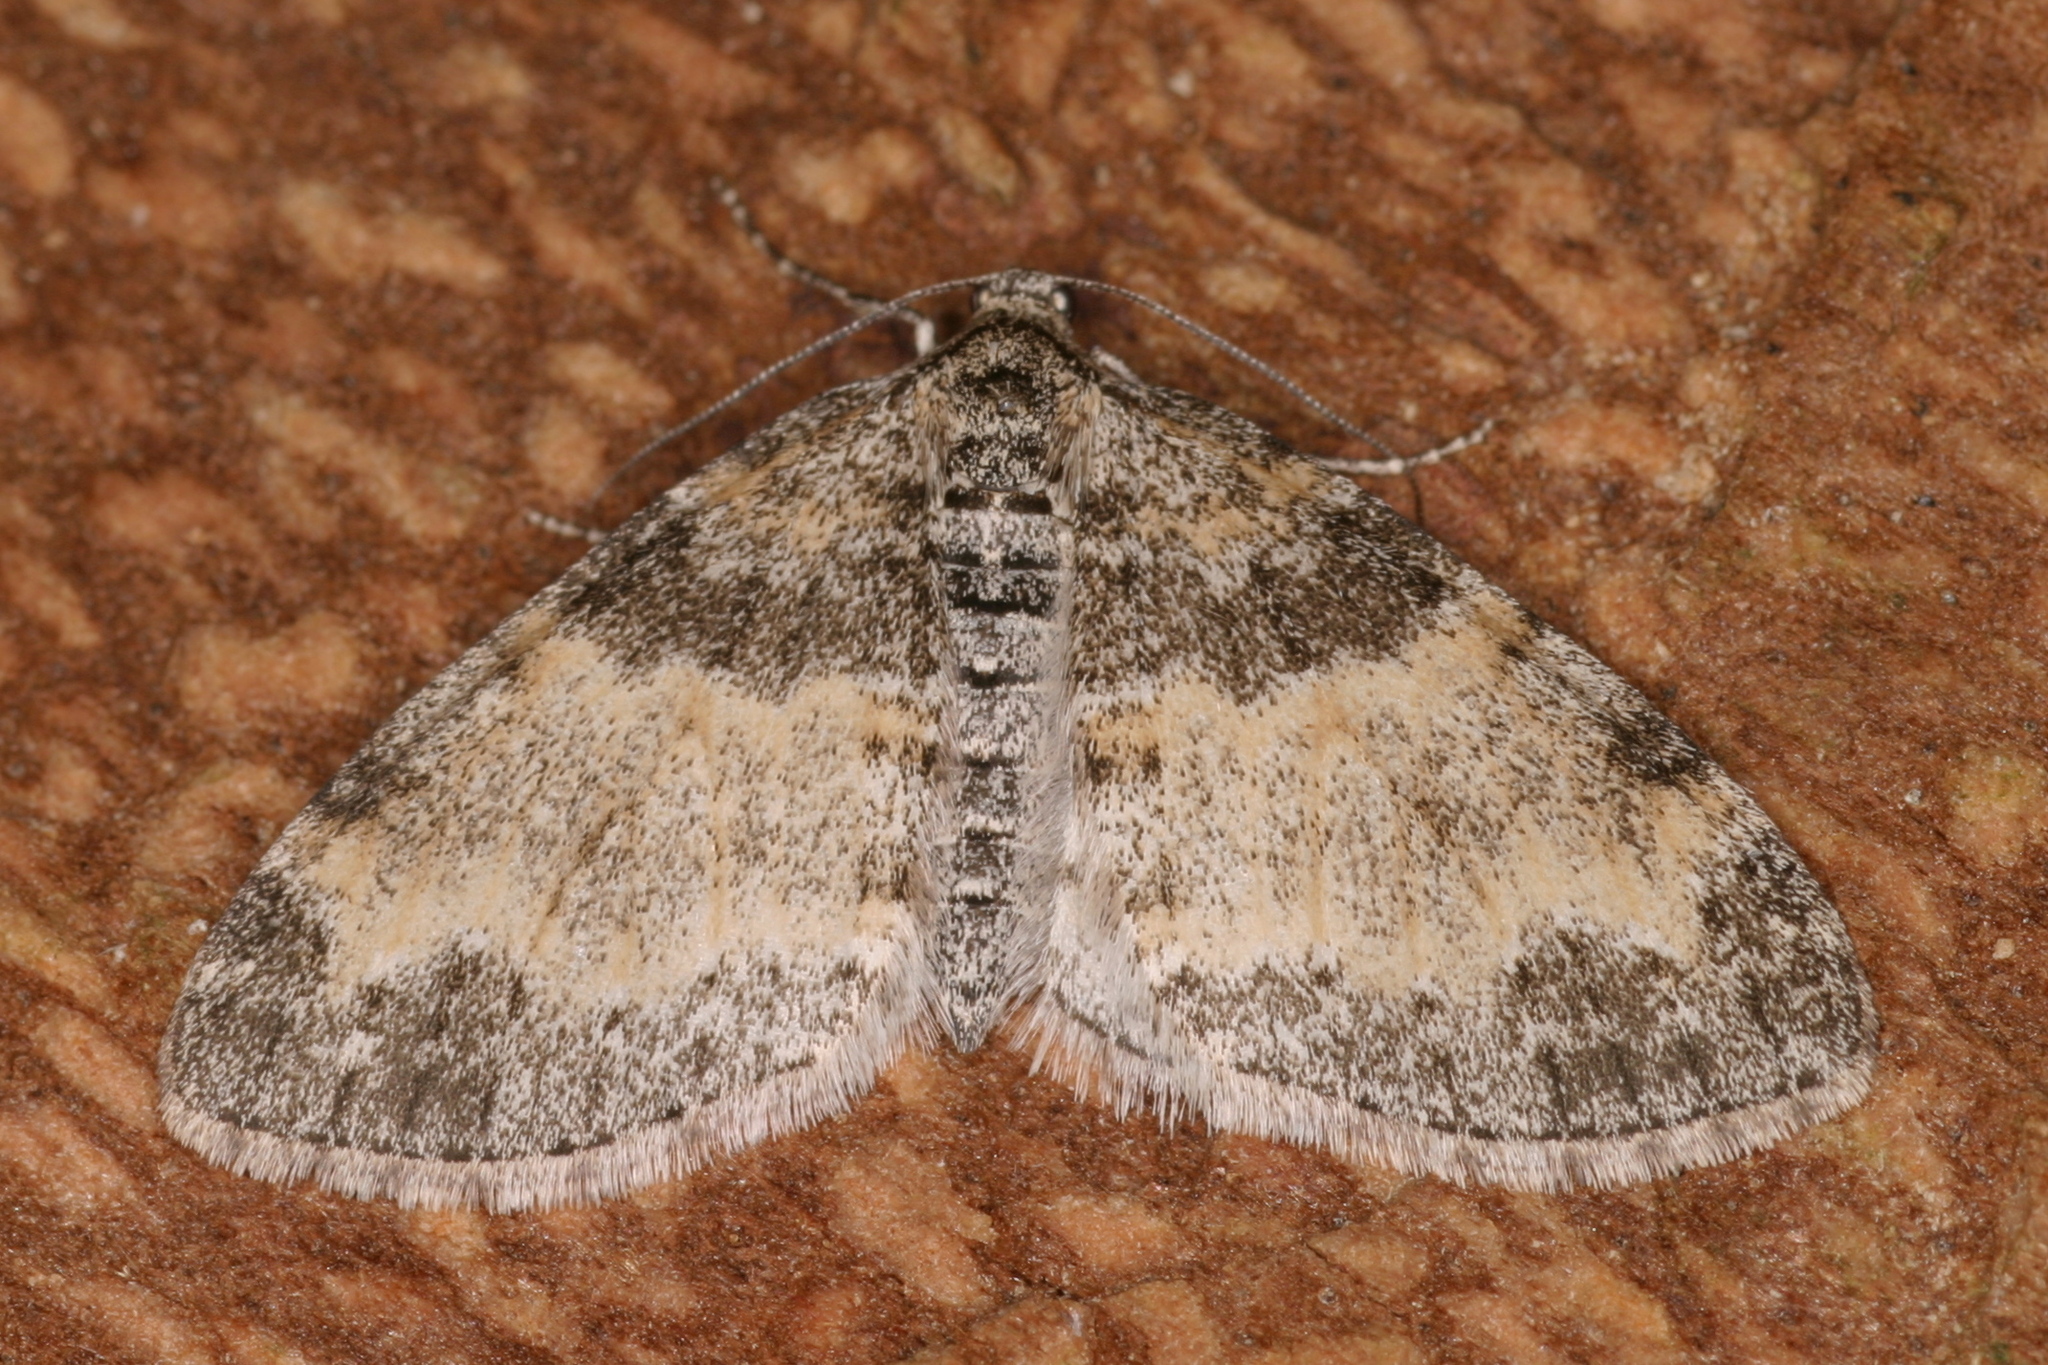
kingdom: Animalia
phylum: Arthropoda
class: Insecta
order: Lepidoptera
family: Geometridae
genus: Lobophora
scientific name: Lobophora halterata
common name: Seraphim
